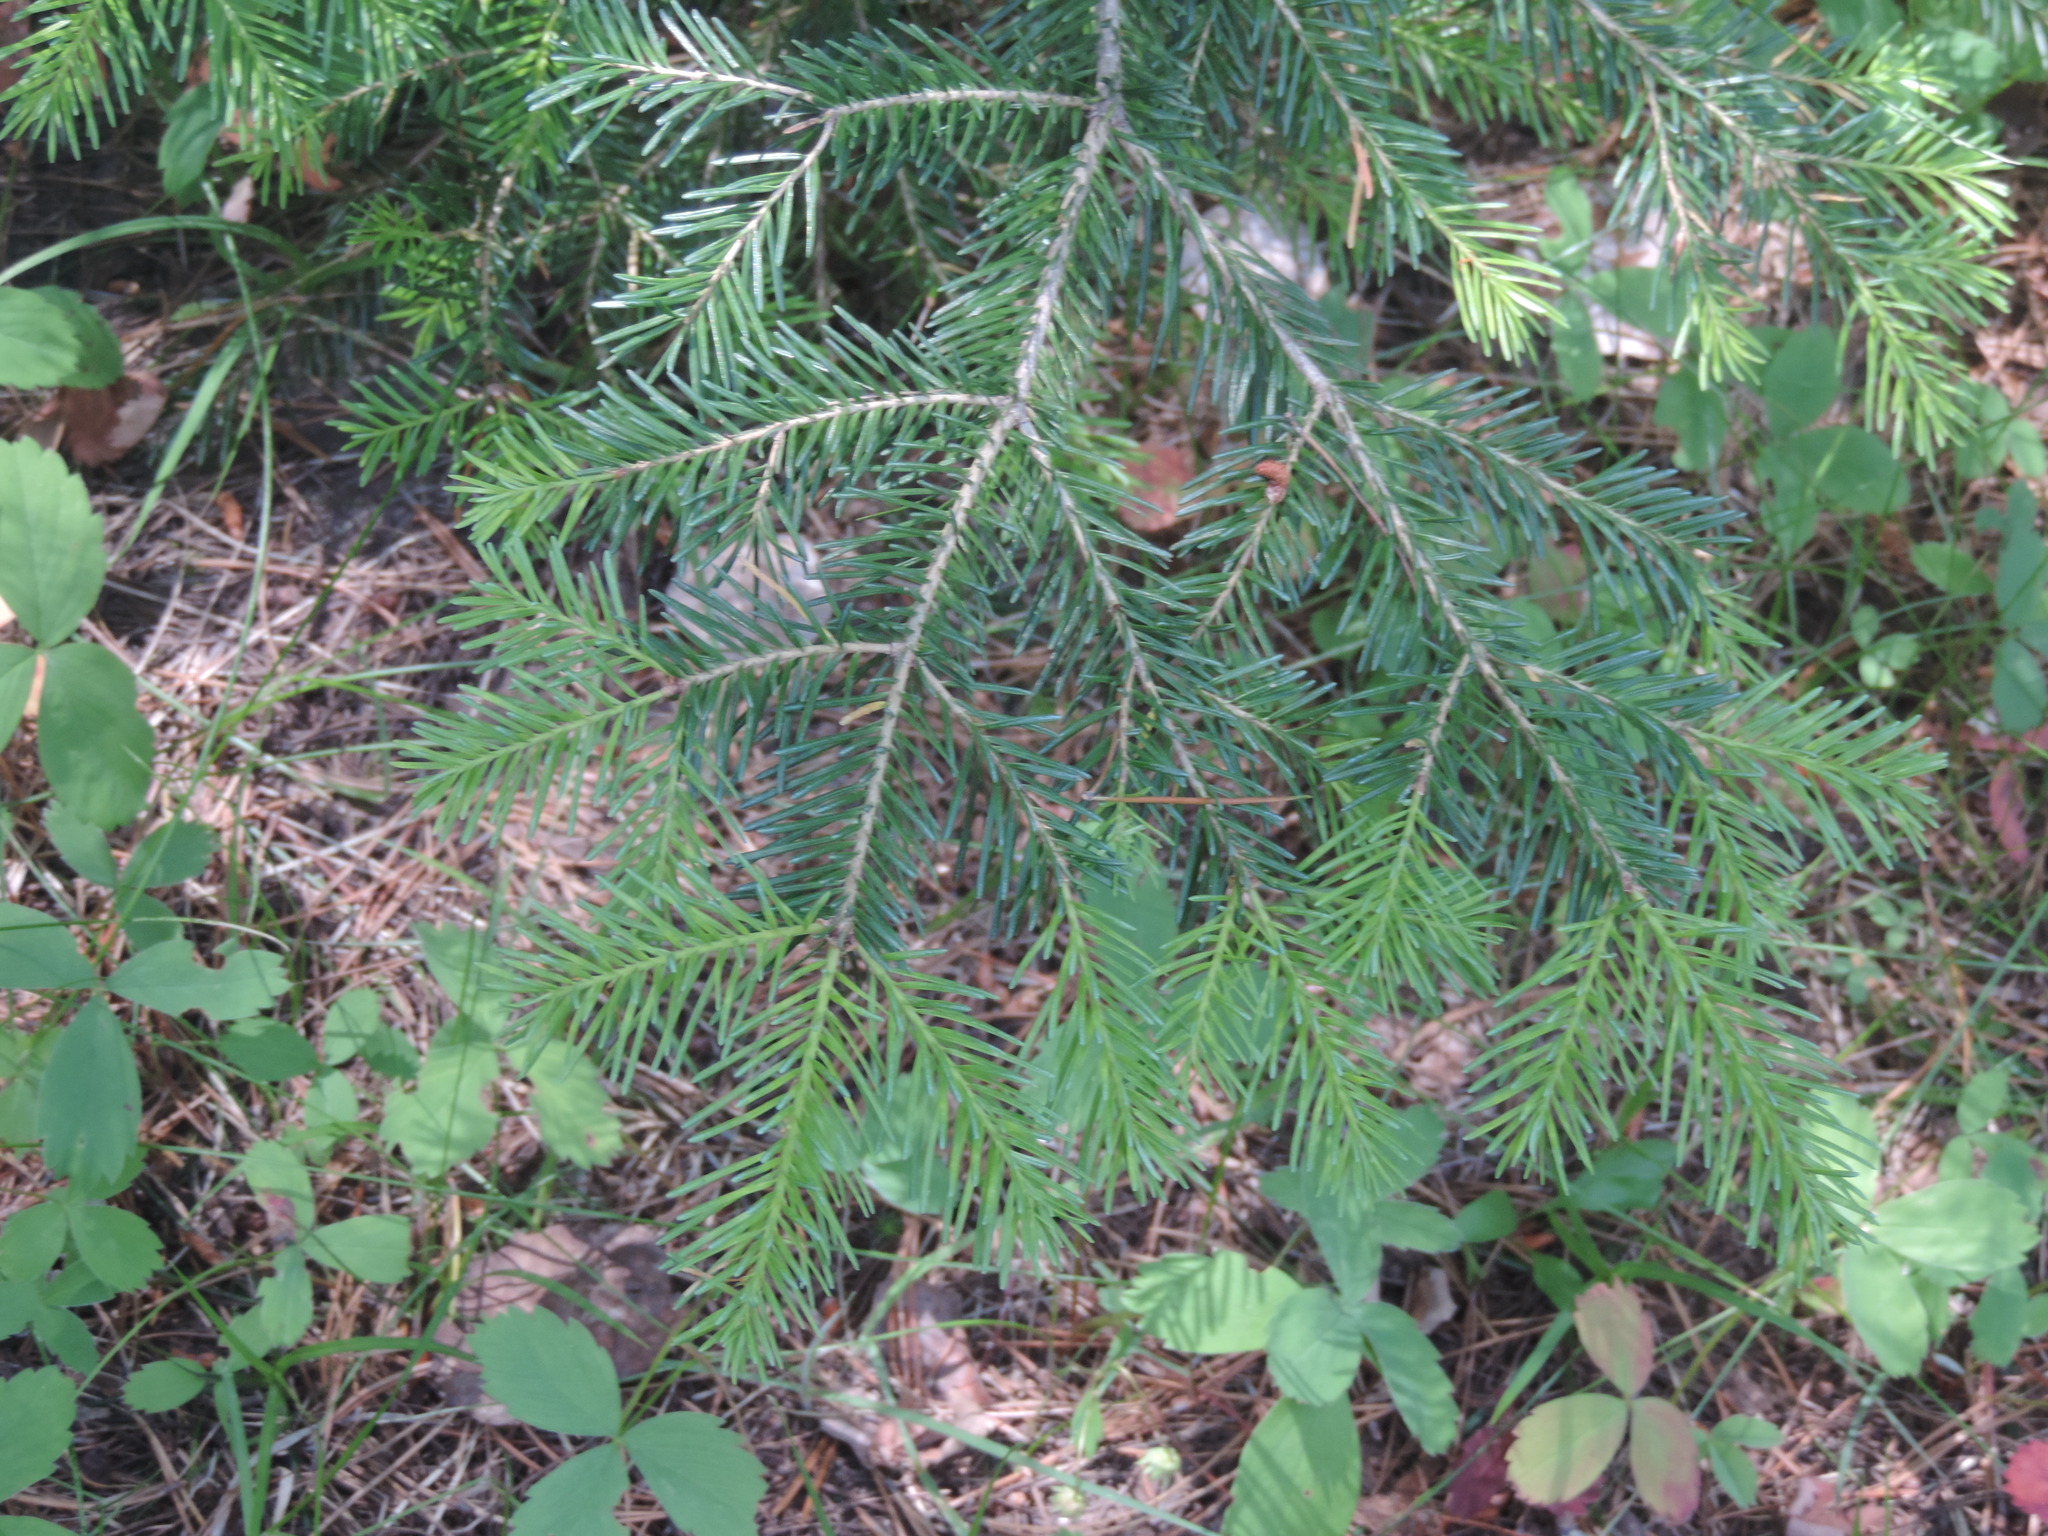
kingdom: Plantae
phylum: Tracheophyta
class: Pinopsida
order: Pinales
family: Pinaceae
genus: Abies
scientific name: Abies lasiocarpa
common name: Subalpine fir
